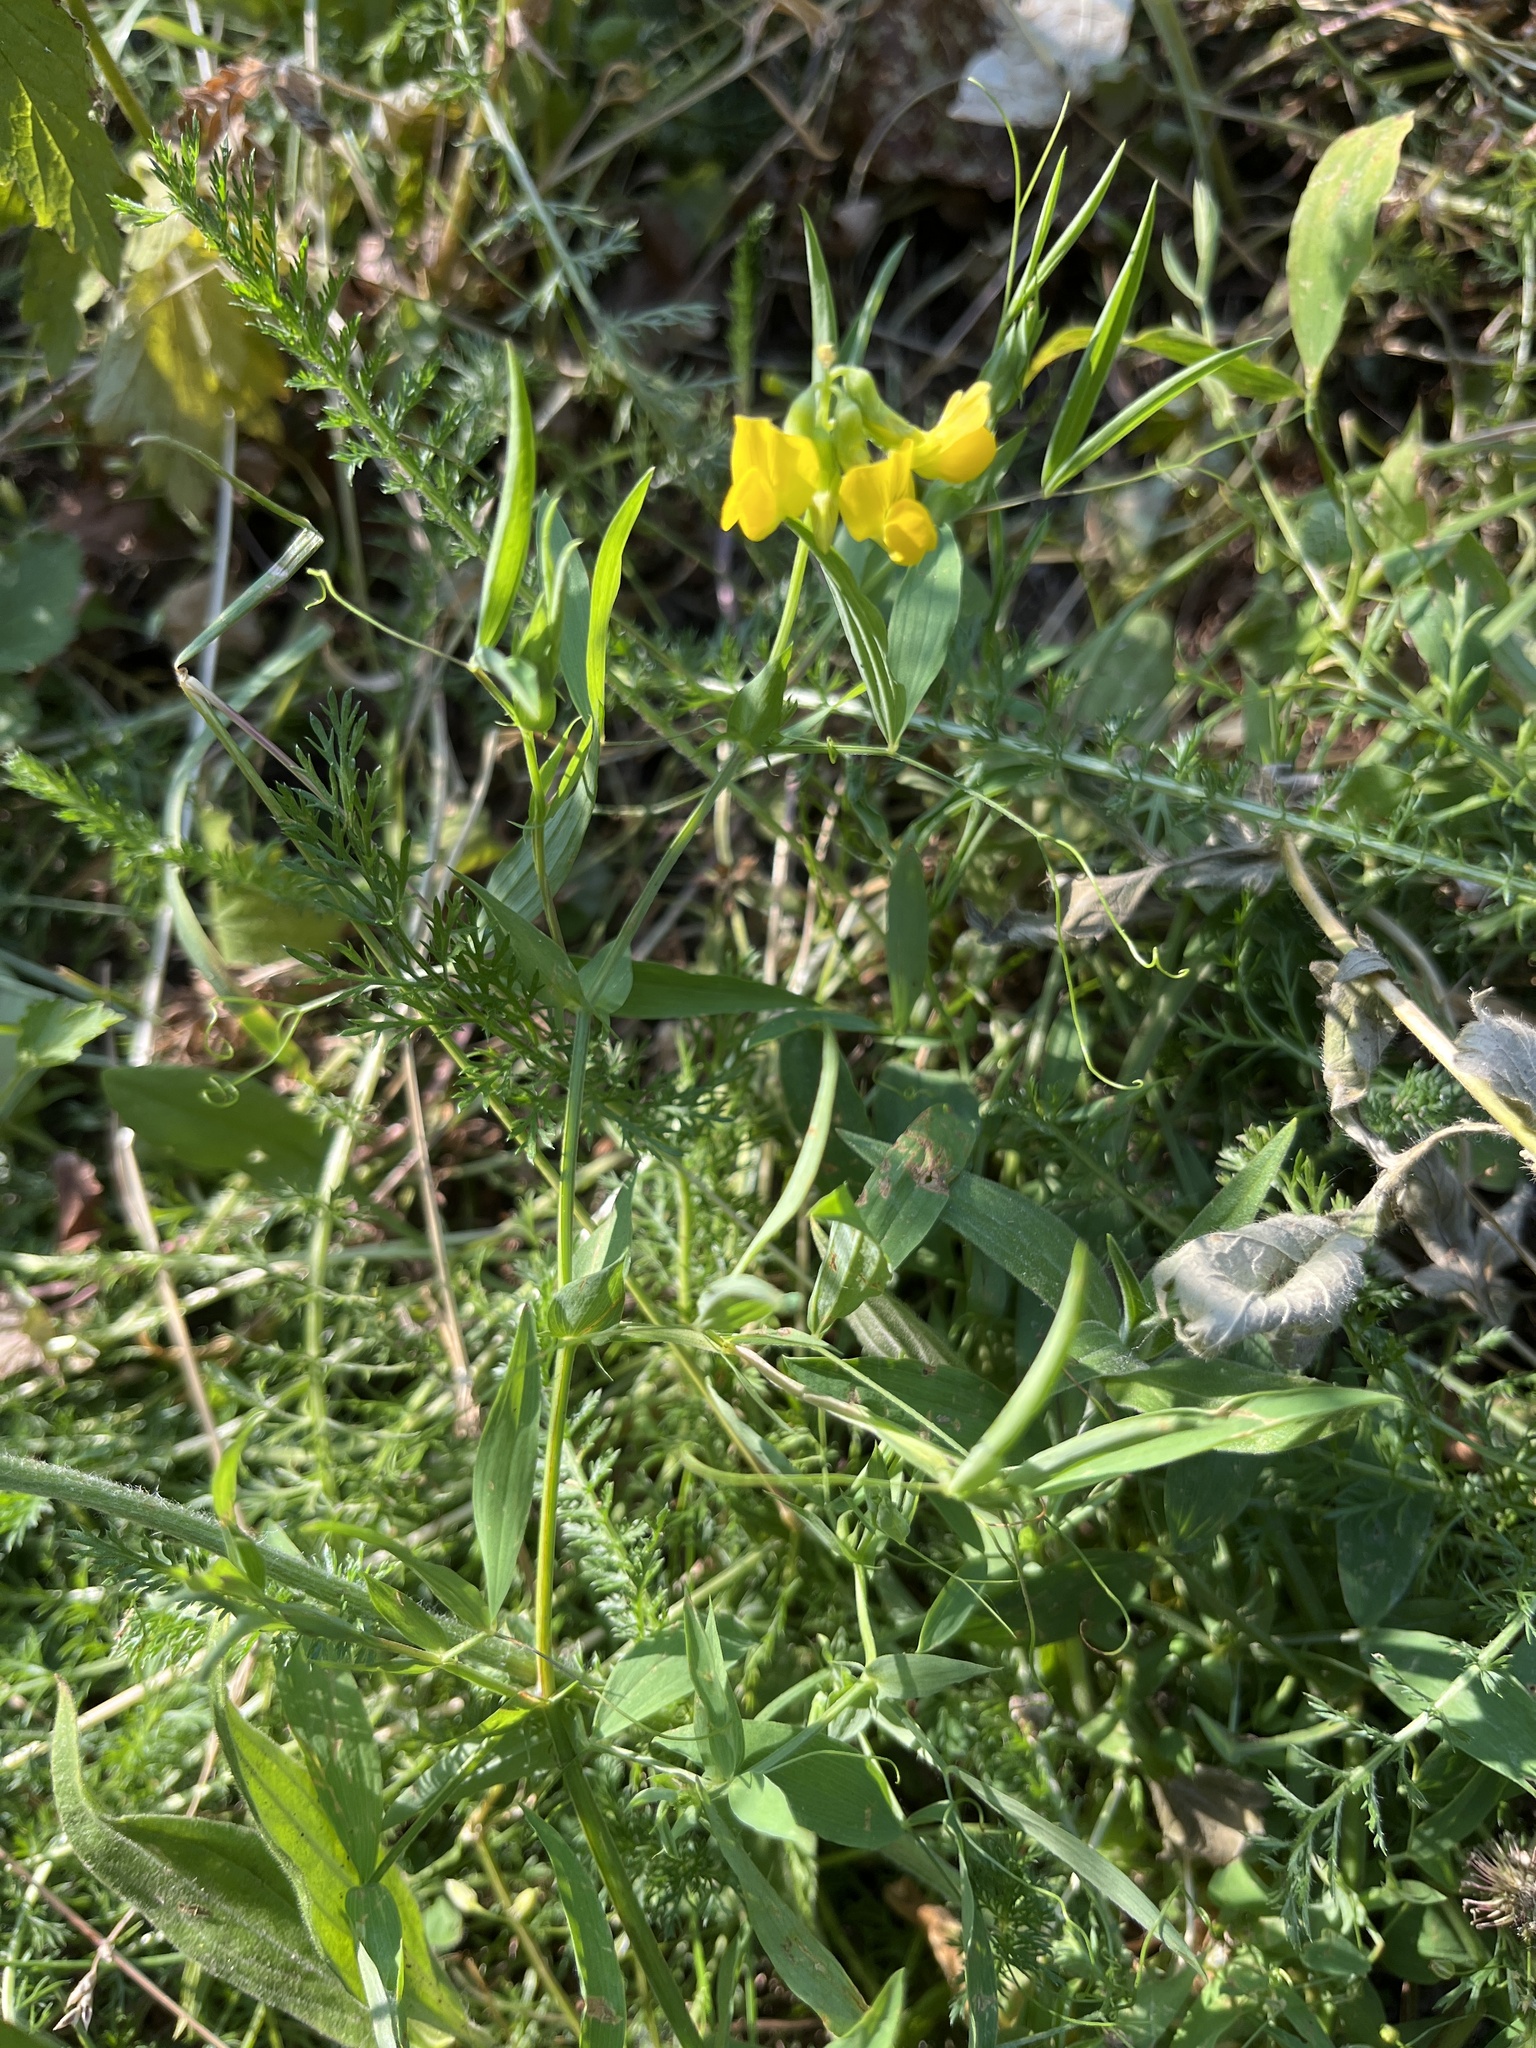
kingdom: Plantae
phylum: Tracheophyta
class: Magnoliopsida
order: Fabales
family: Fabaceae
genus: Lathyrus
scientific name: Lathyrus pratensis
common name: Meadow vetchling
